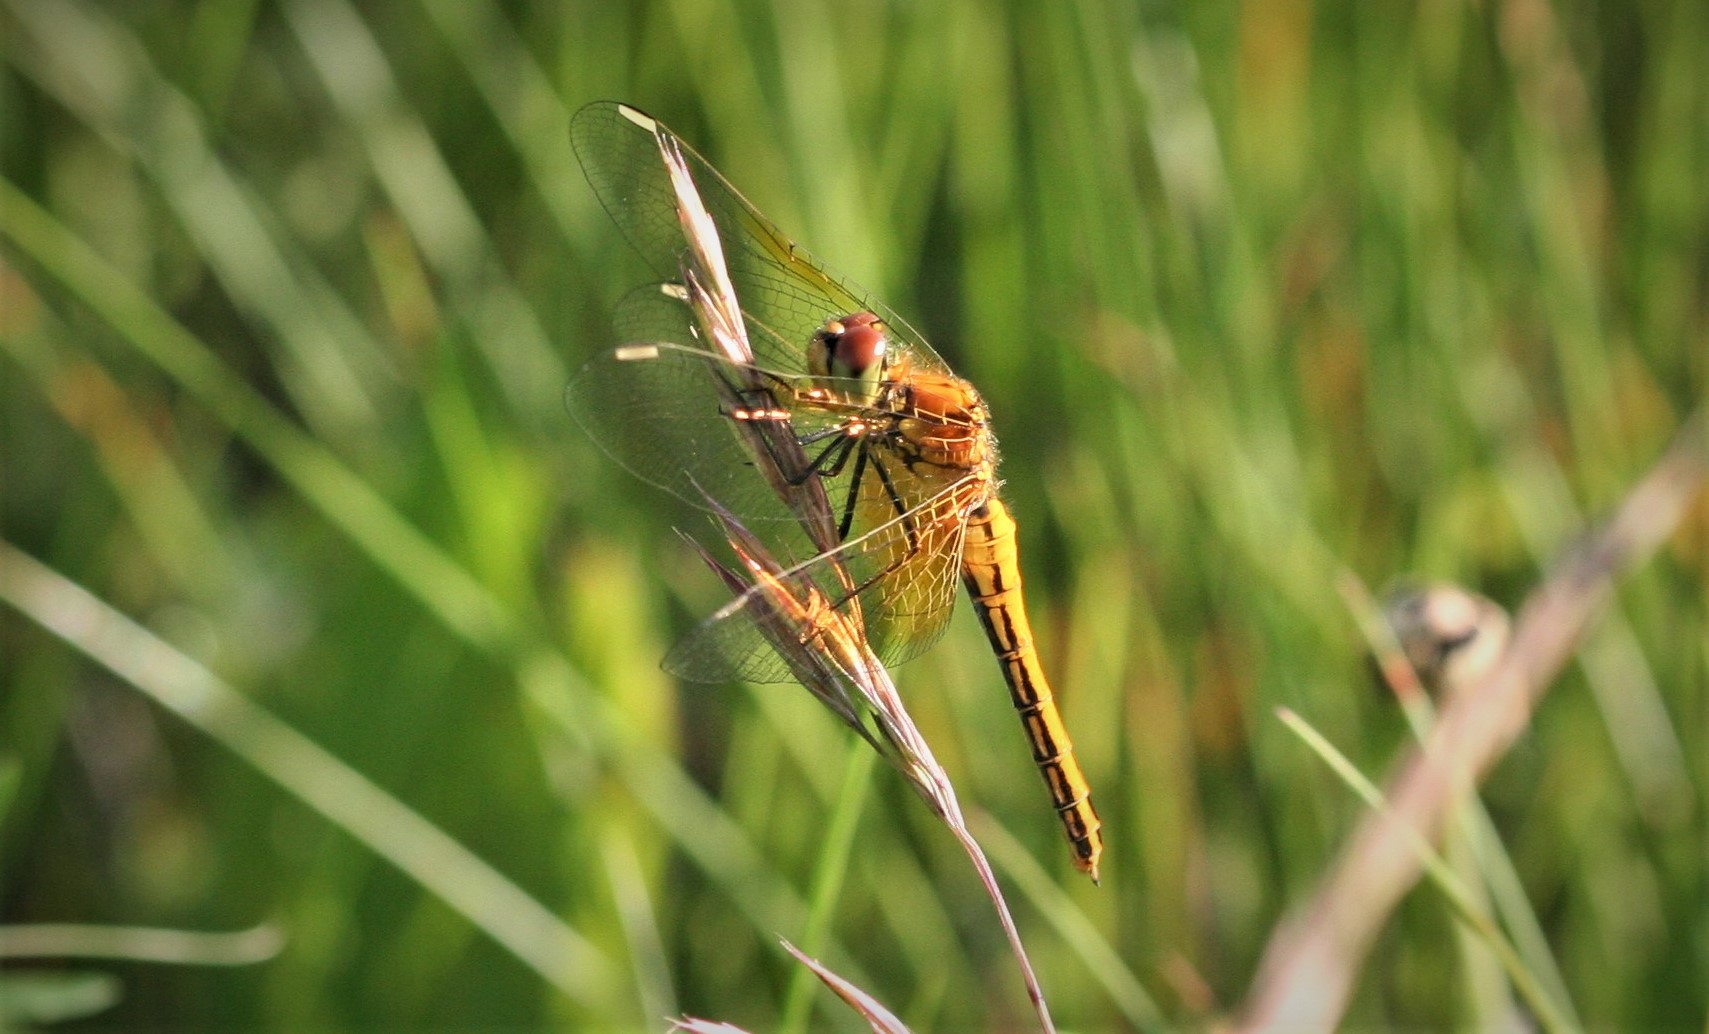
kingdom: Animalia
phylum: Arthropoda
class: Insecta
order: Odonata
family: Libellulidae
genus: Sympetrum
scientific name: Sympetrum flaveolum
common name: Yellow-winged darter
